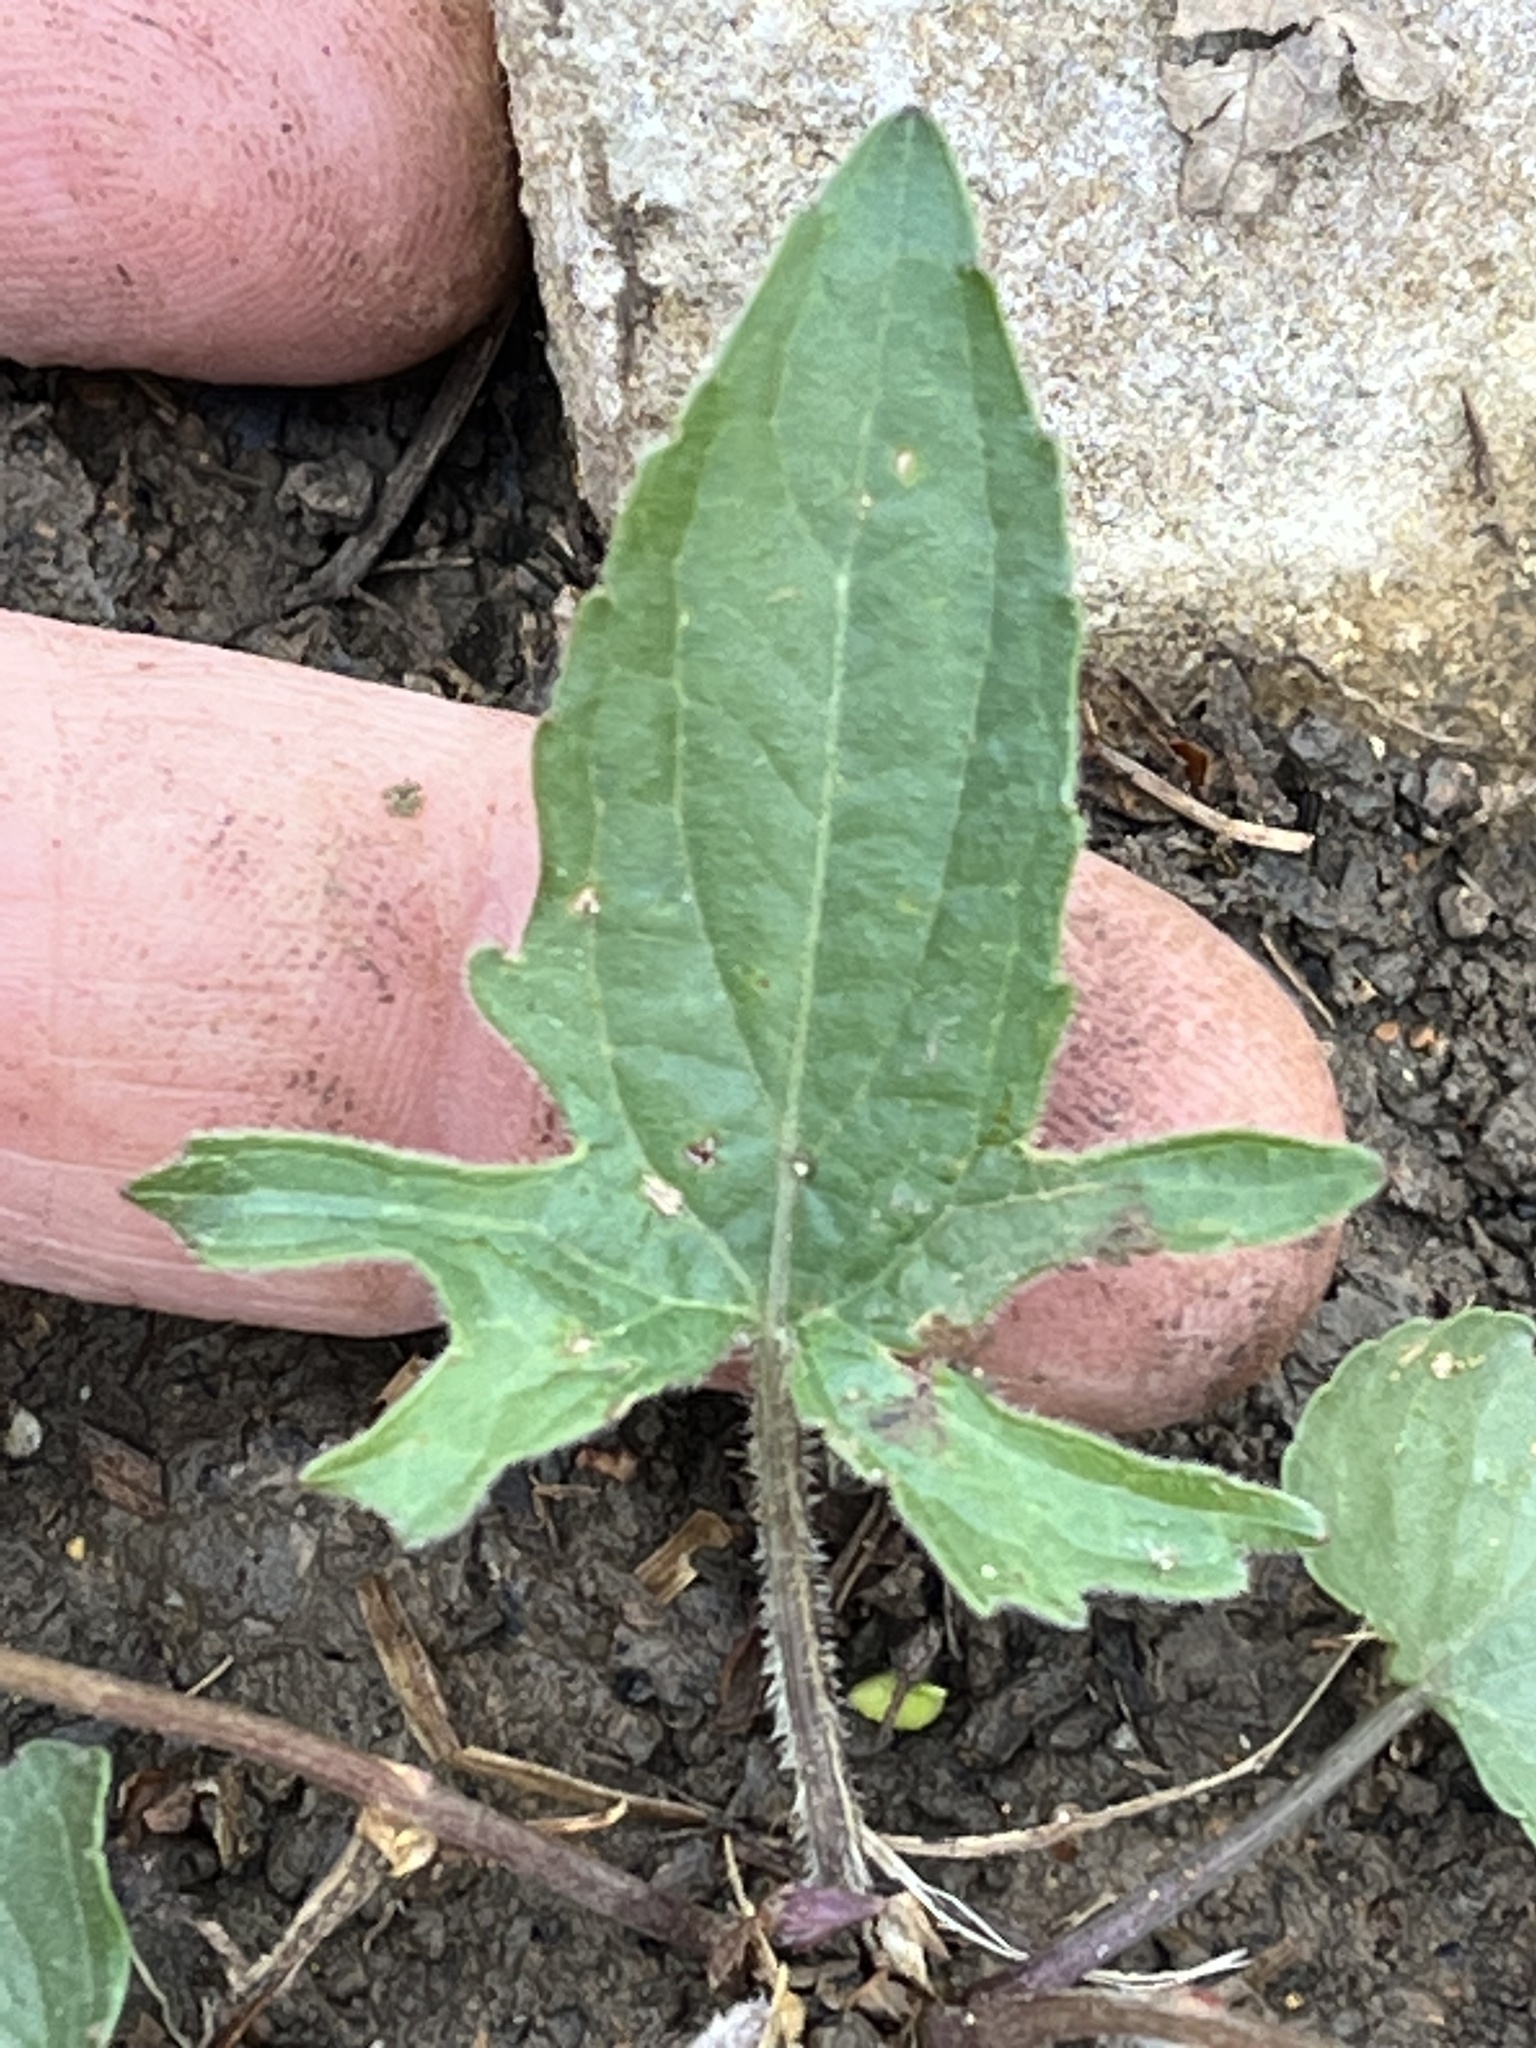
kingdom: Plantae
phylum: Tracheophyta
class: Magnoliopsida
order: Malpighiales
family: Violaceae
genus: Viola
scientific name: Viola palmata
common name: Early blue violet
